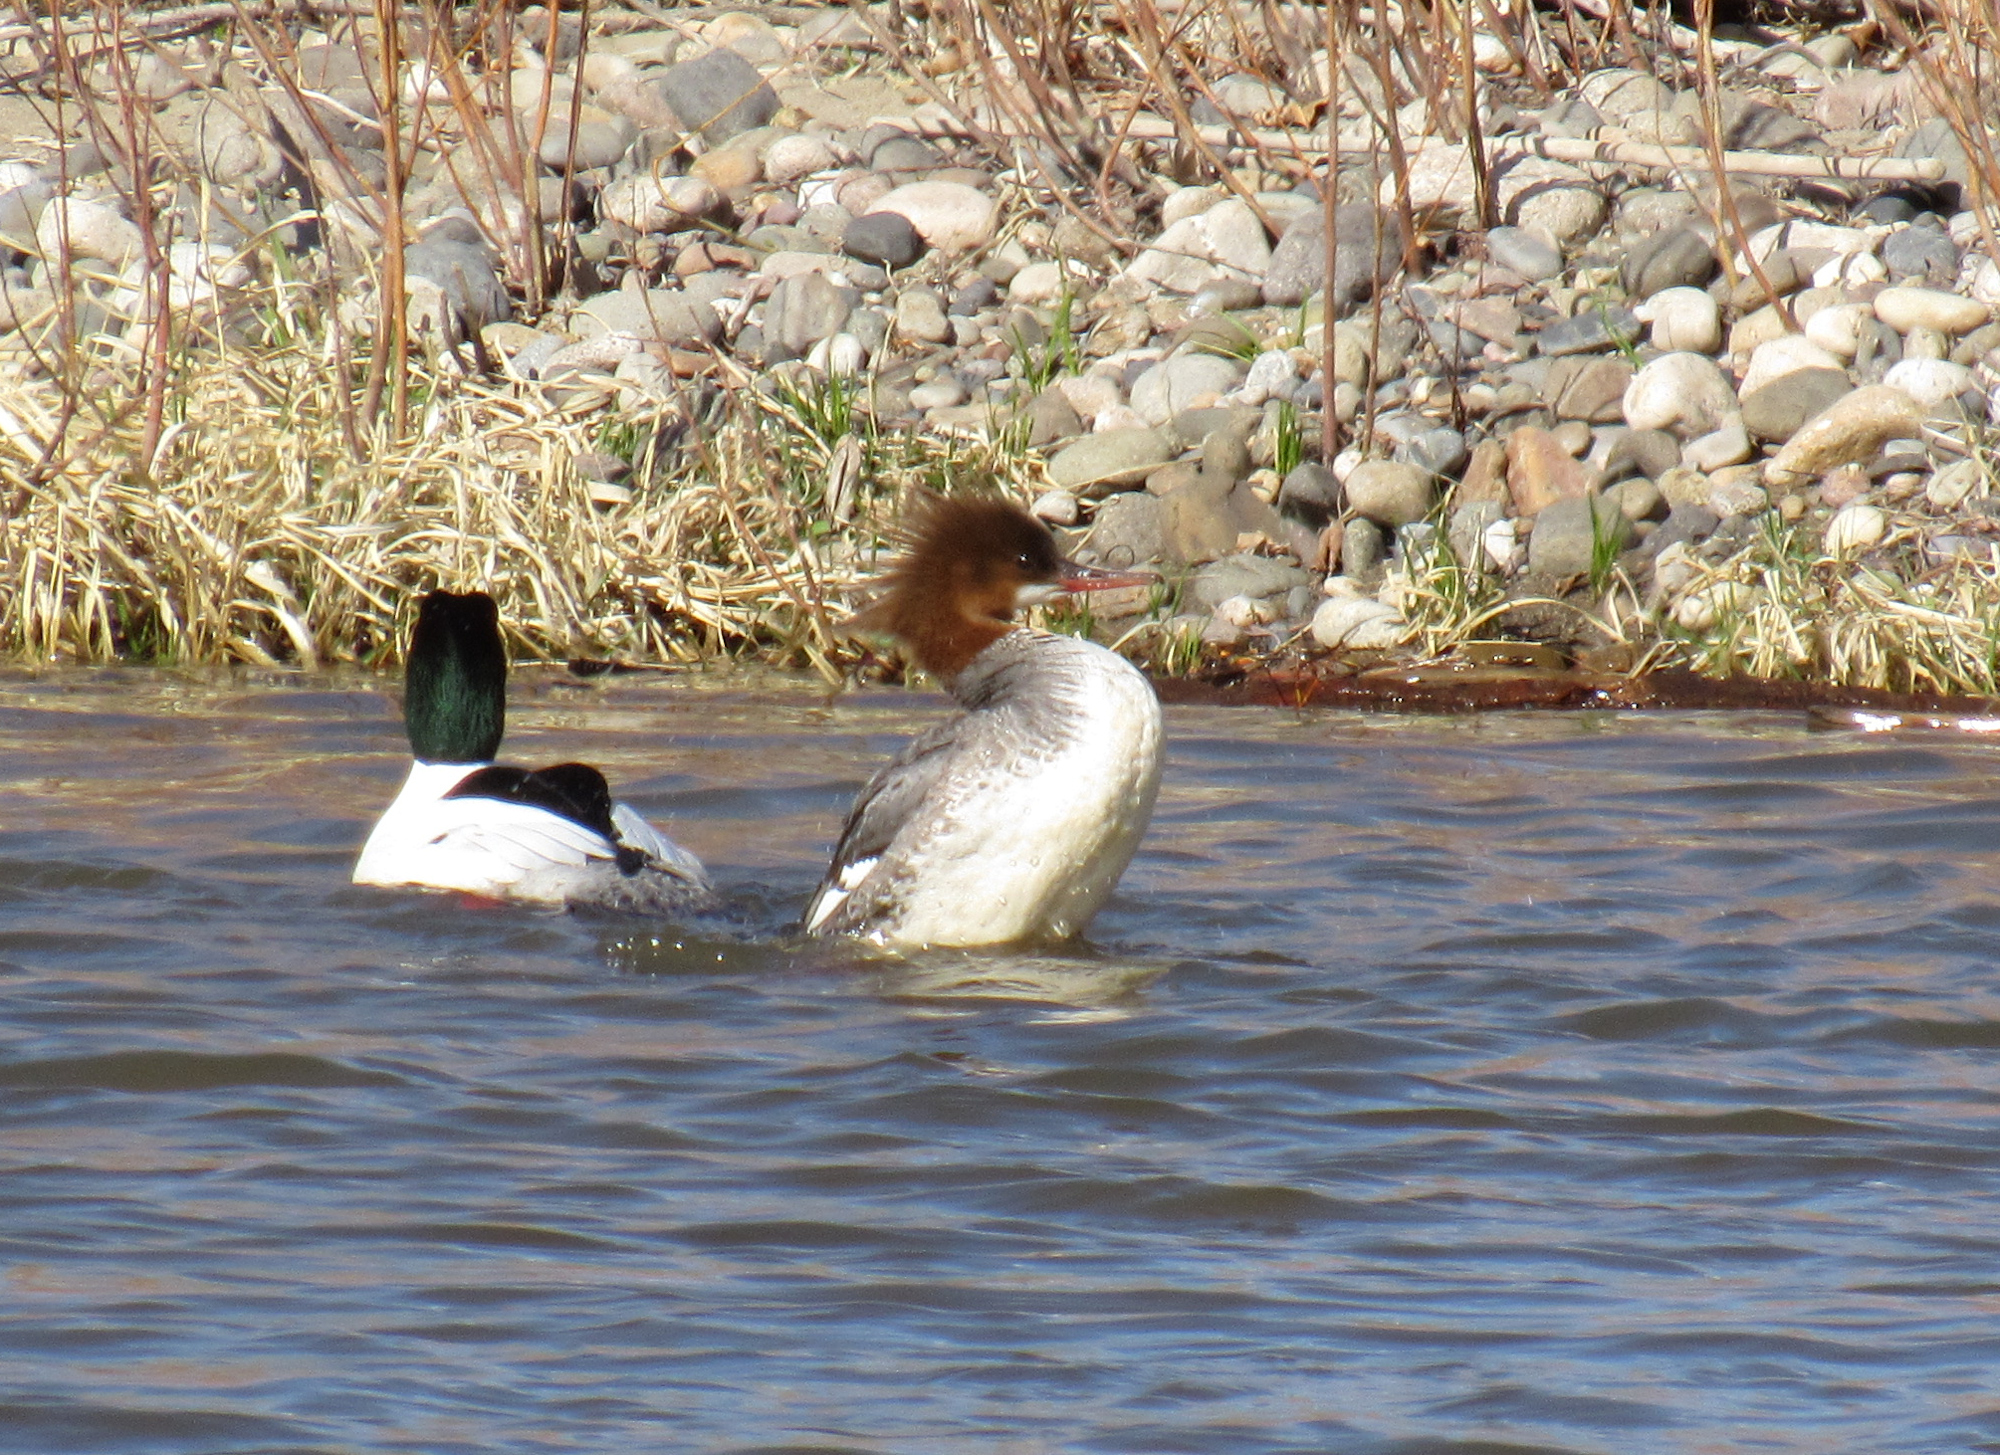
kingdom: Animalia
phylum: Chordata
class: Aves
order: Anseriformes
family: Anatidae
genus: Mergus
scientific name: Mergus merganser
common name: Common merganser
